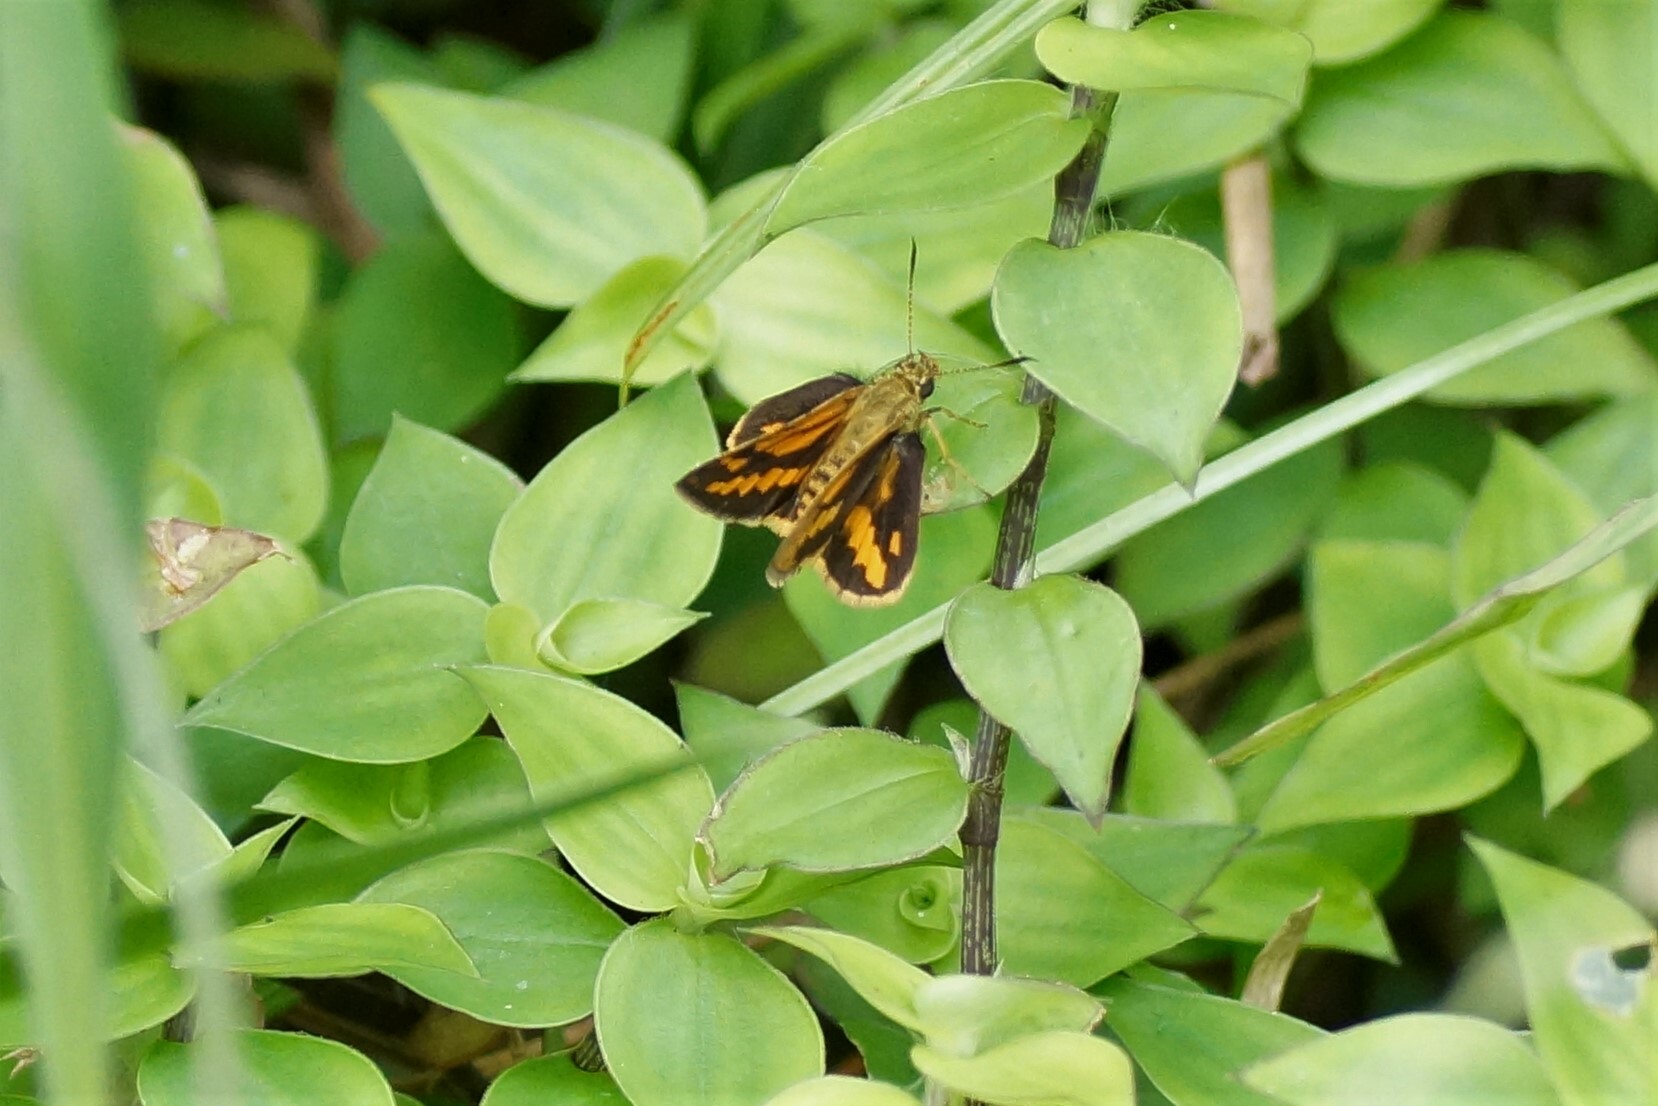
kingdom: Animalia
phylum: Arthropoda
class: Insecta
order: Lepidoptera
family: Hesperiidae
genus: Suniana
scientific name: Suniana sunias
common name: Wide-brand grass-dart
